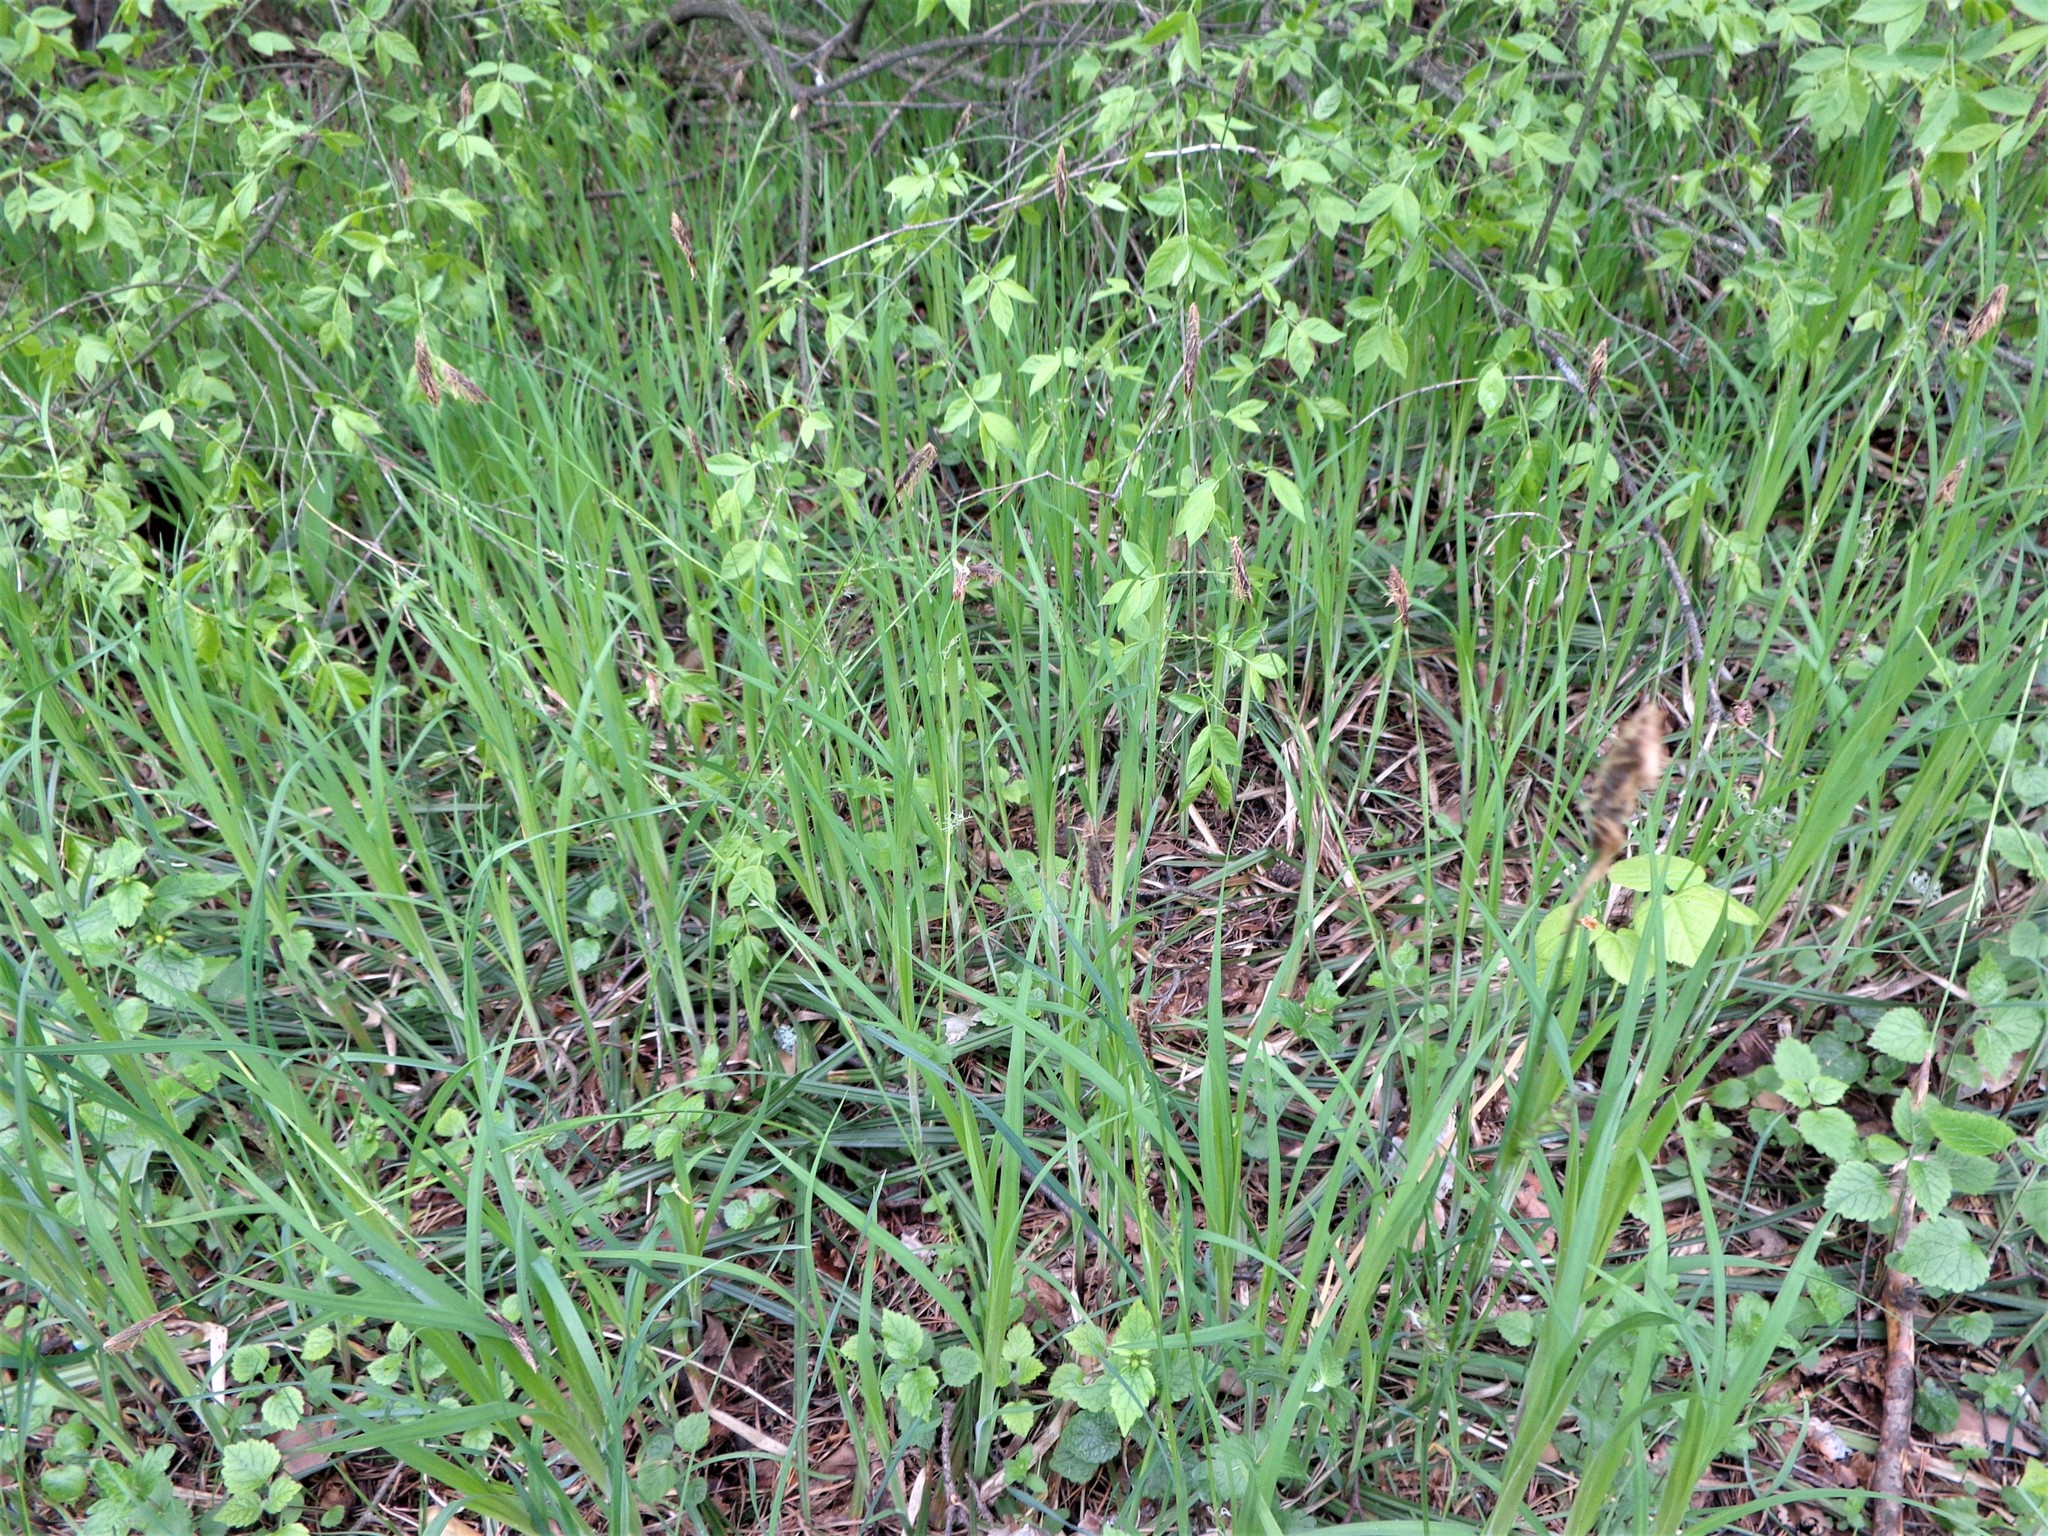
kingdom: Plantae
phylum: Tracheophyta
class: Liliopsida
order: Poales
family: Cyperaceae
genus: Carex
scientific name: Carex pilosa
